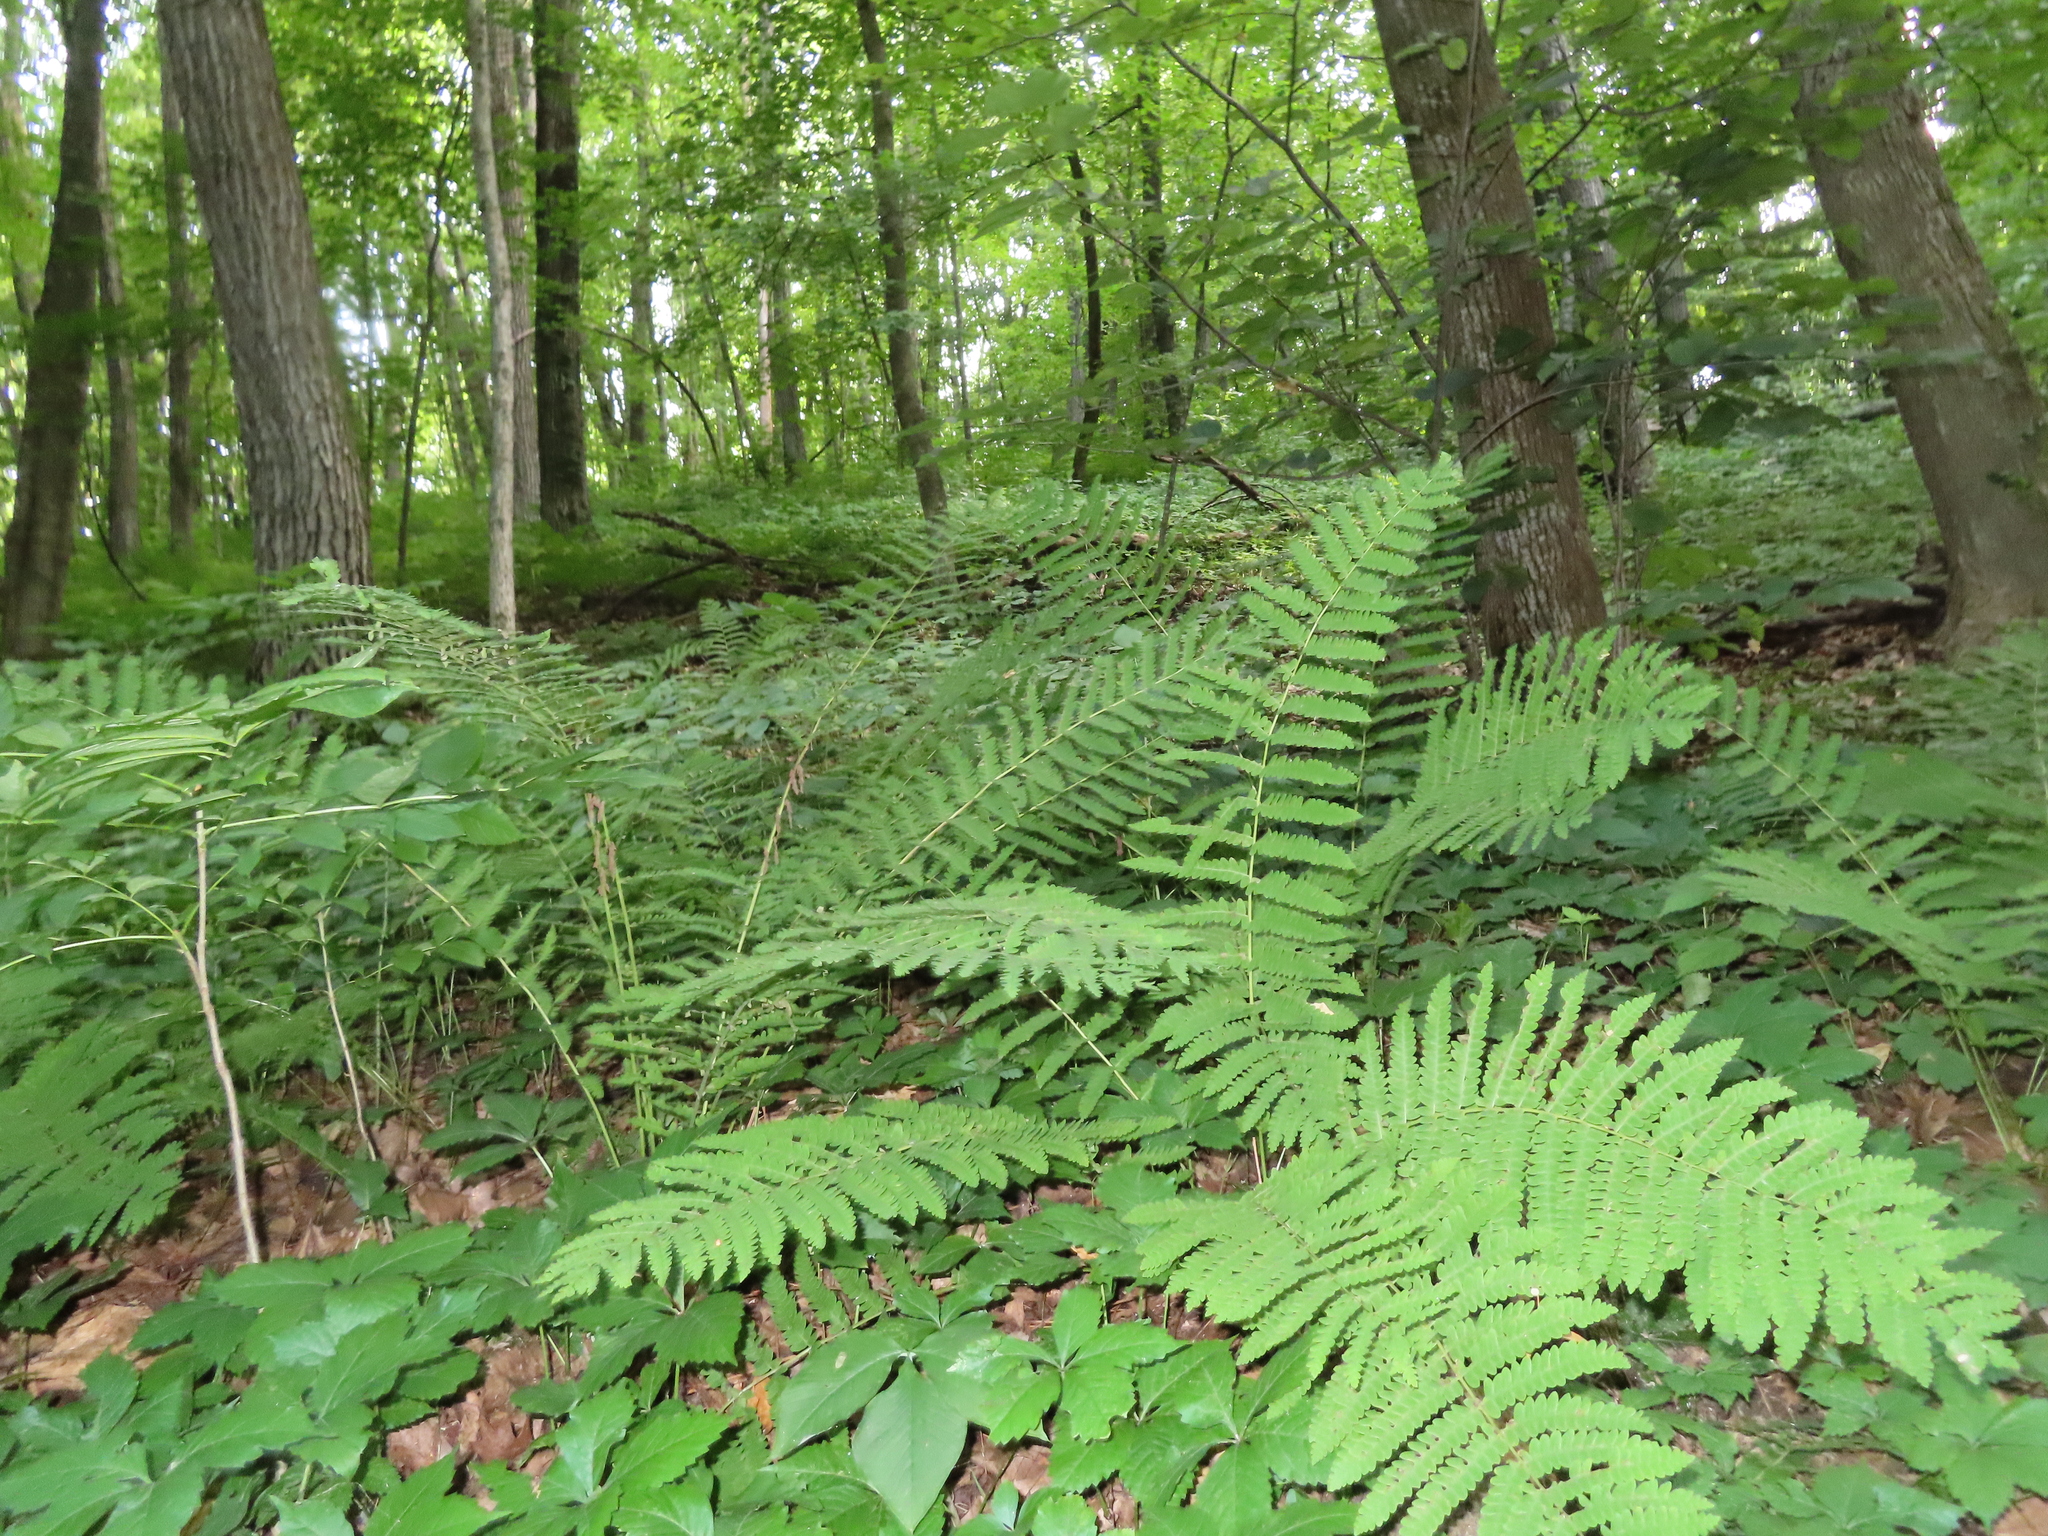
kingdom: Plantae
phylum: Tracheophyta
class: Polypodiopsida
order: Osmundales
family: Osmundaceae
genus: Claytosmunda
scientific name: Claytosmunda claytoniana
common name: Clayton's fern
